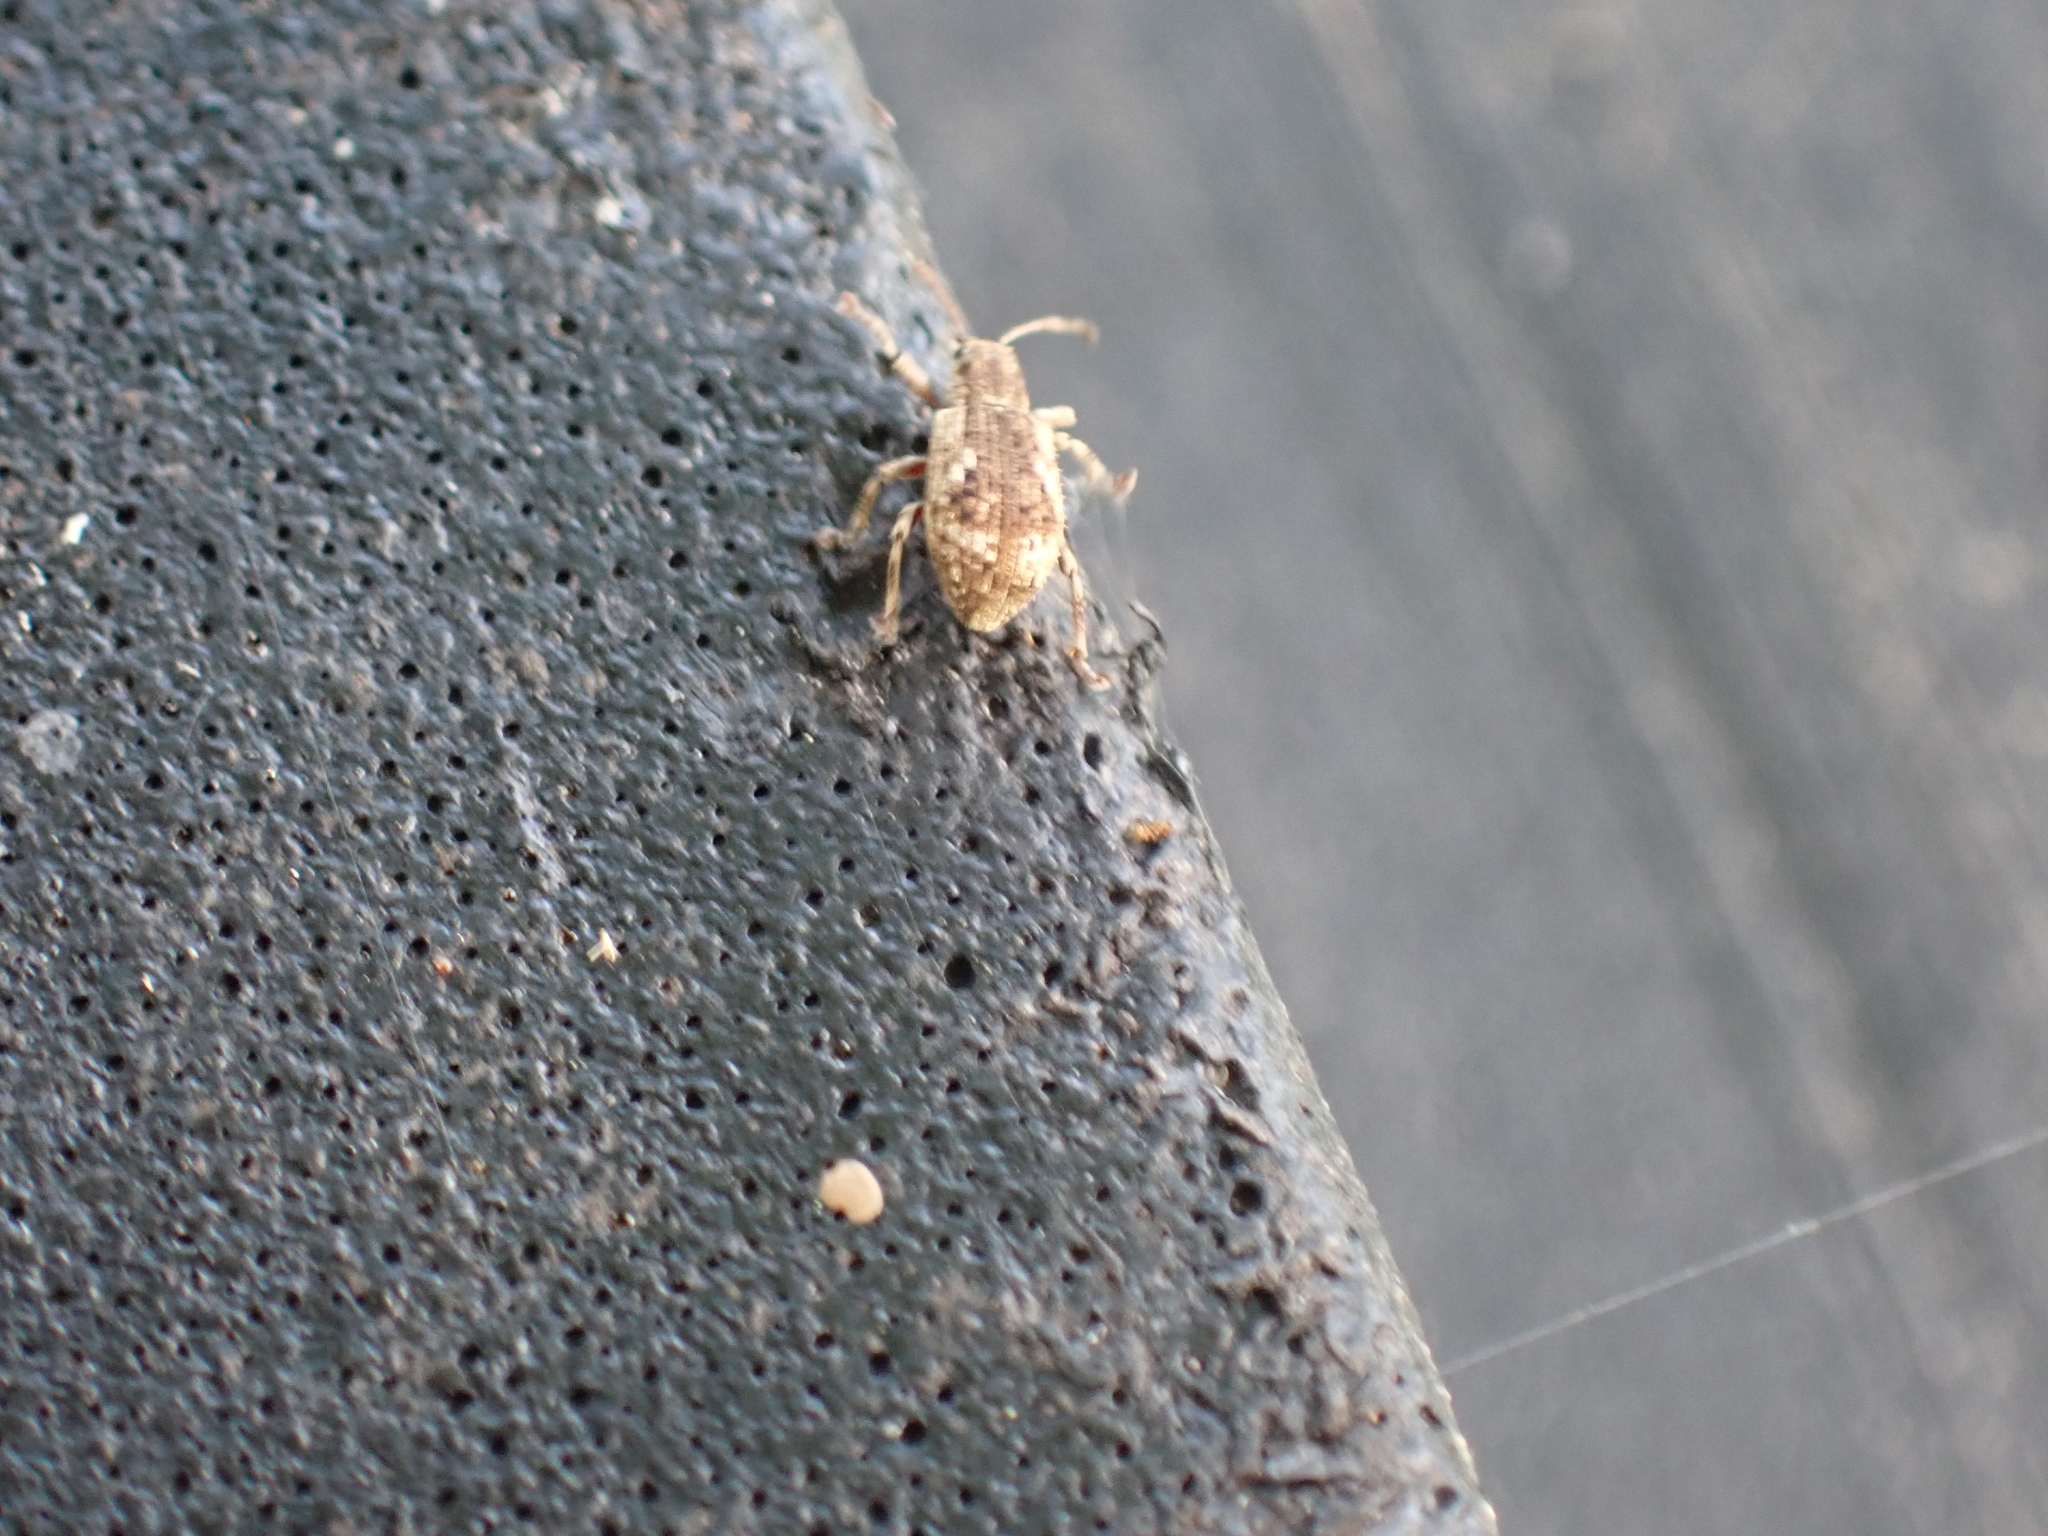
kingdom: Animalia
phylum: Arthropoda
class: Insecta
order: Coleoptera
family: Curculionidae
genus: Pseudoedophrys
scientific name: Pseudoedophrys hilleri
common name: Weevil
